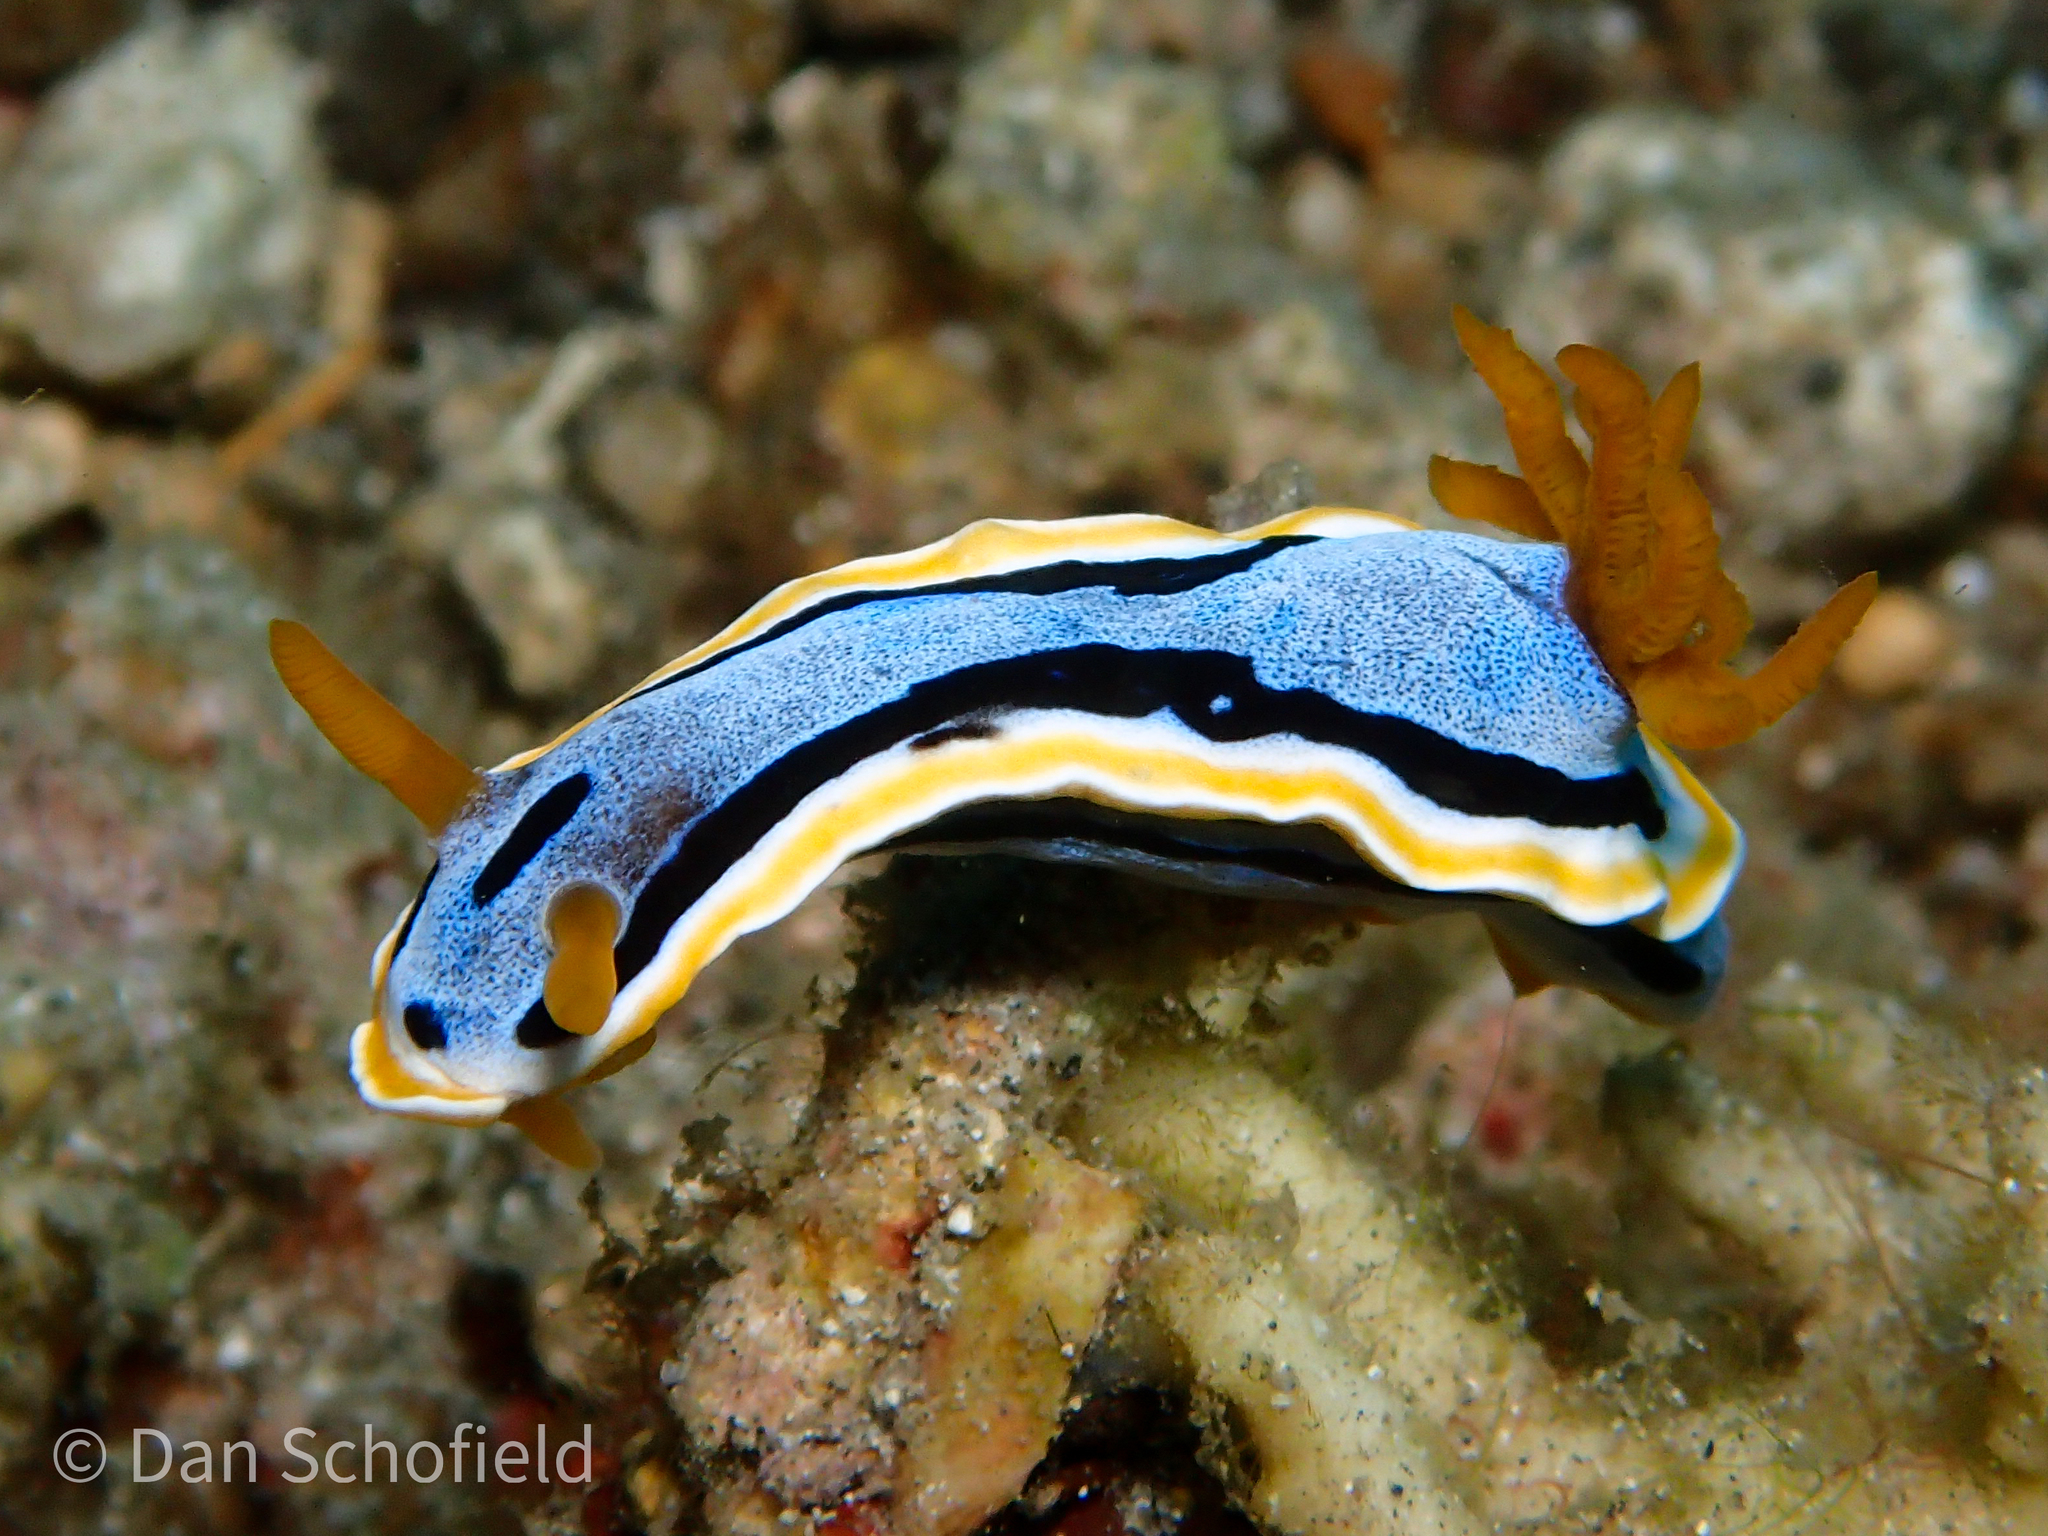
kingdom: Animalia
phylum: Mollusca
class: Gastropoda
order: Nudibranchia
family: Chromodorididae
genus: Chromodoris
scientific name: Chromodoris annae
